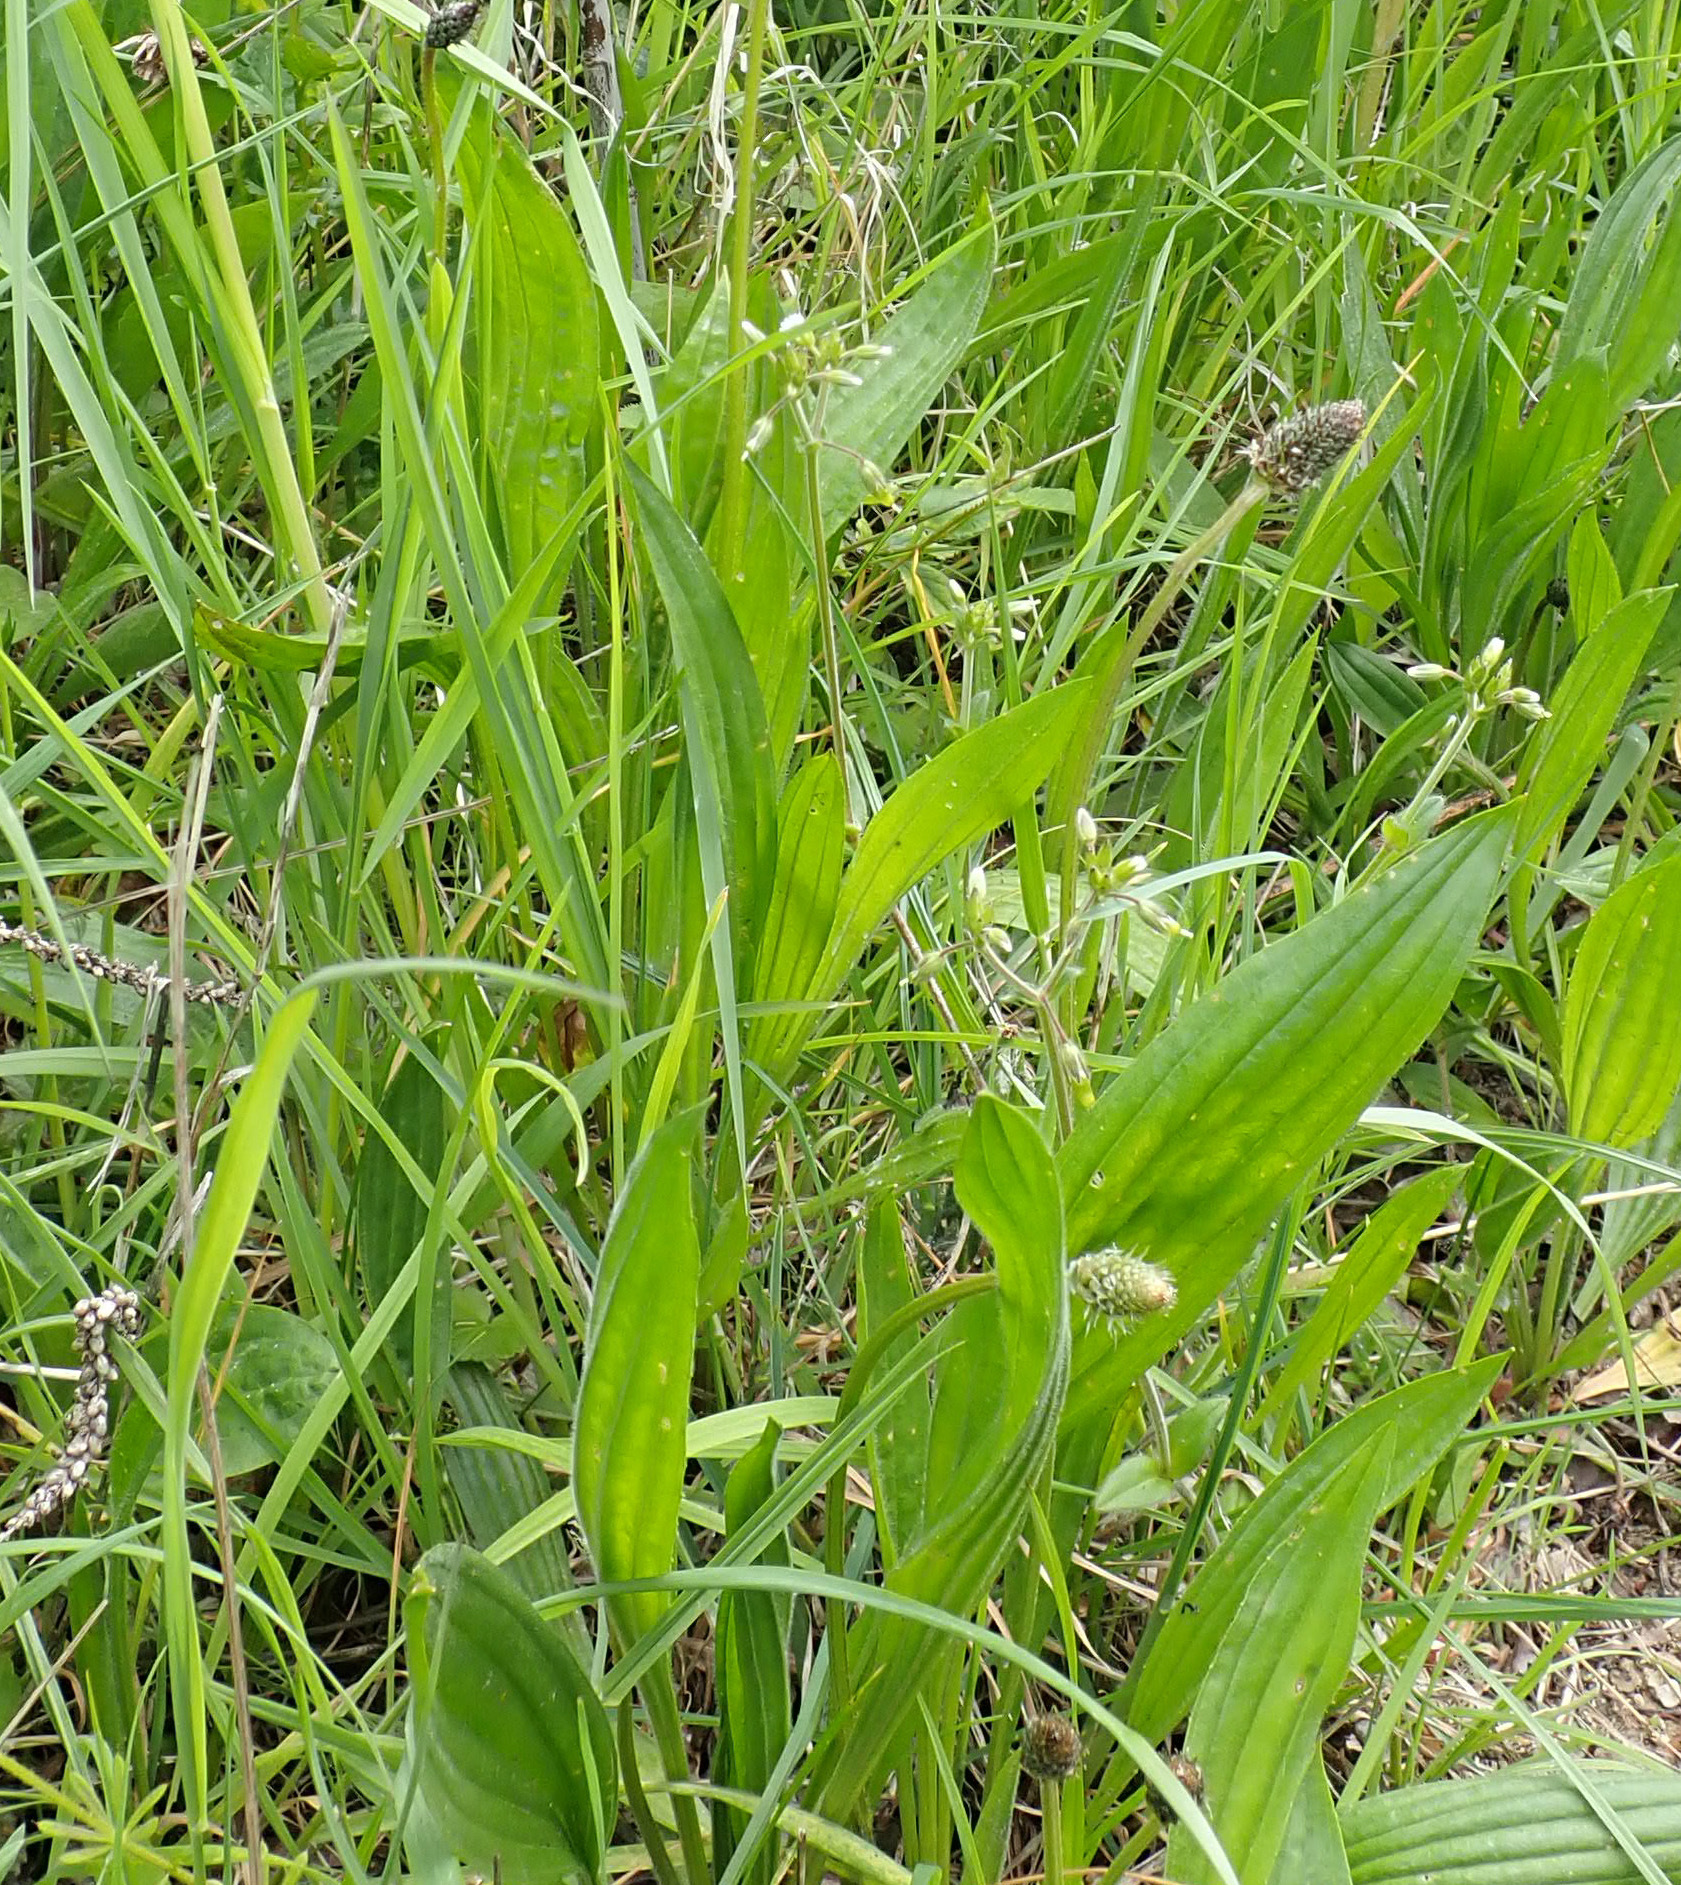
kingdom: Plantae
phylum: Tracheophyta
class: Magnoliopsida
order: Lamiales
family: Plantaginaceae
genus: Plantago
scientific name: Plantago lanceolata
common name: Ribwort plantain
